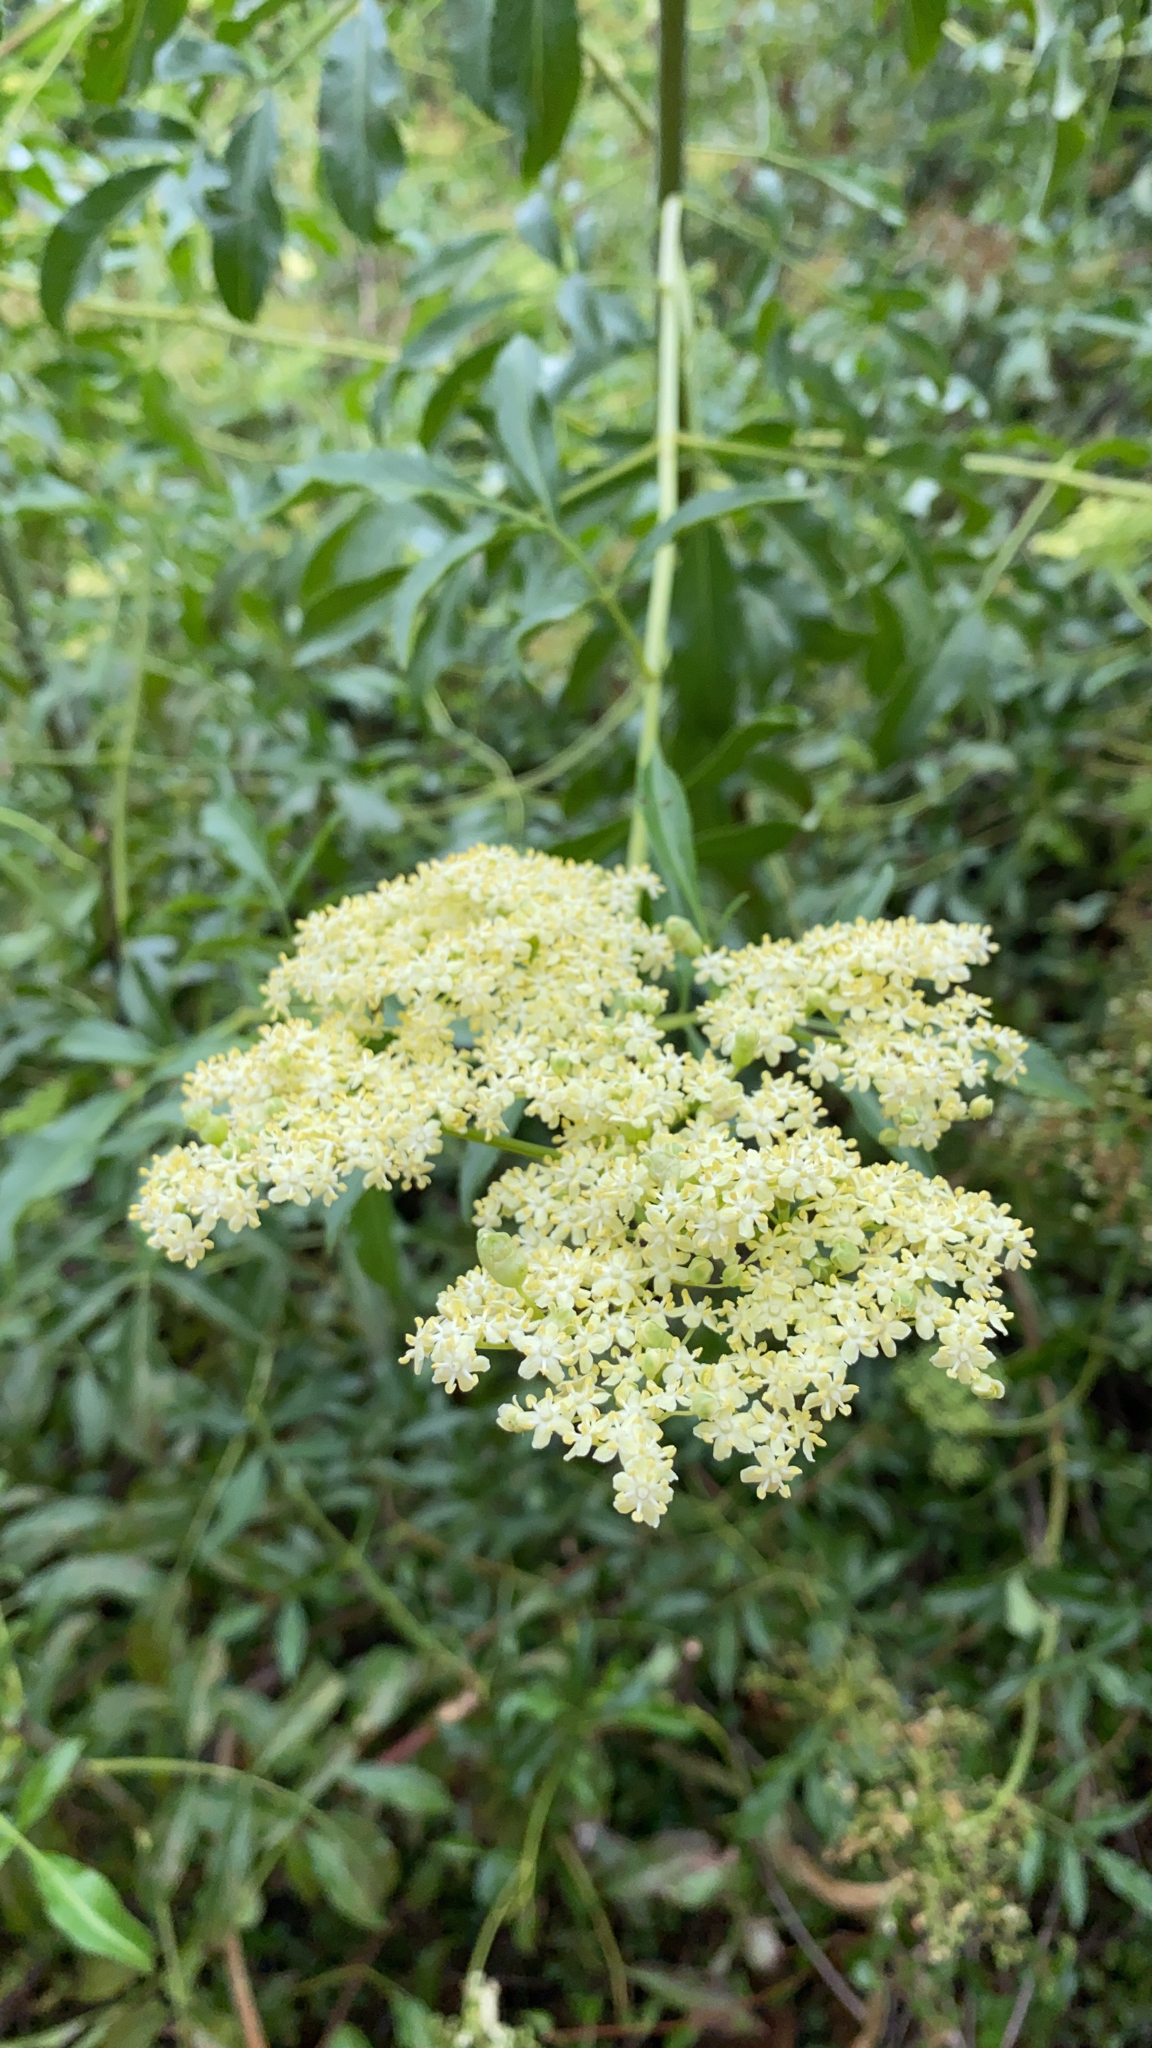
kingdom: Plantae
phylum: Tracheophyta
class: Magnoliopsida
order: Dipsacales
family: Viburnaceae
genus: Sambucus
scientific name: Sambucus cerulea
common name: Blue elder
